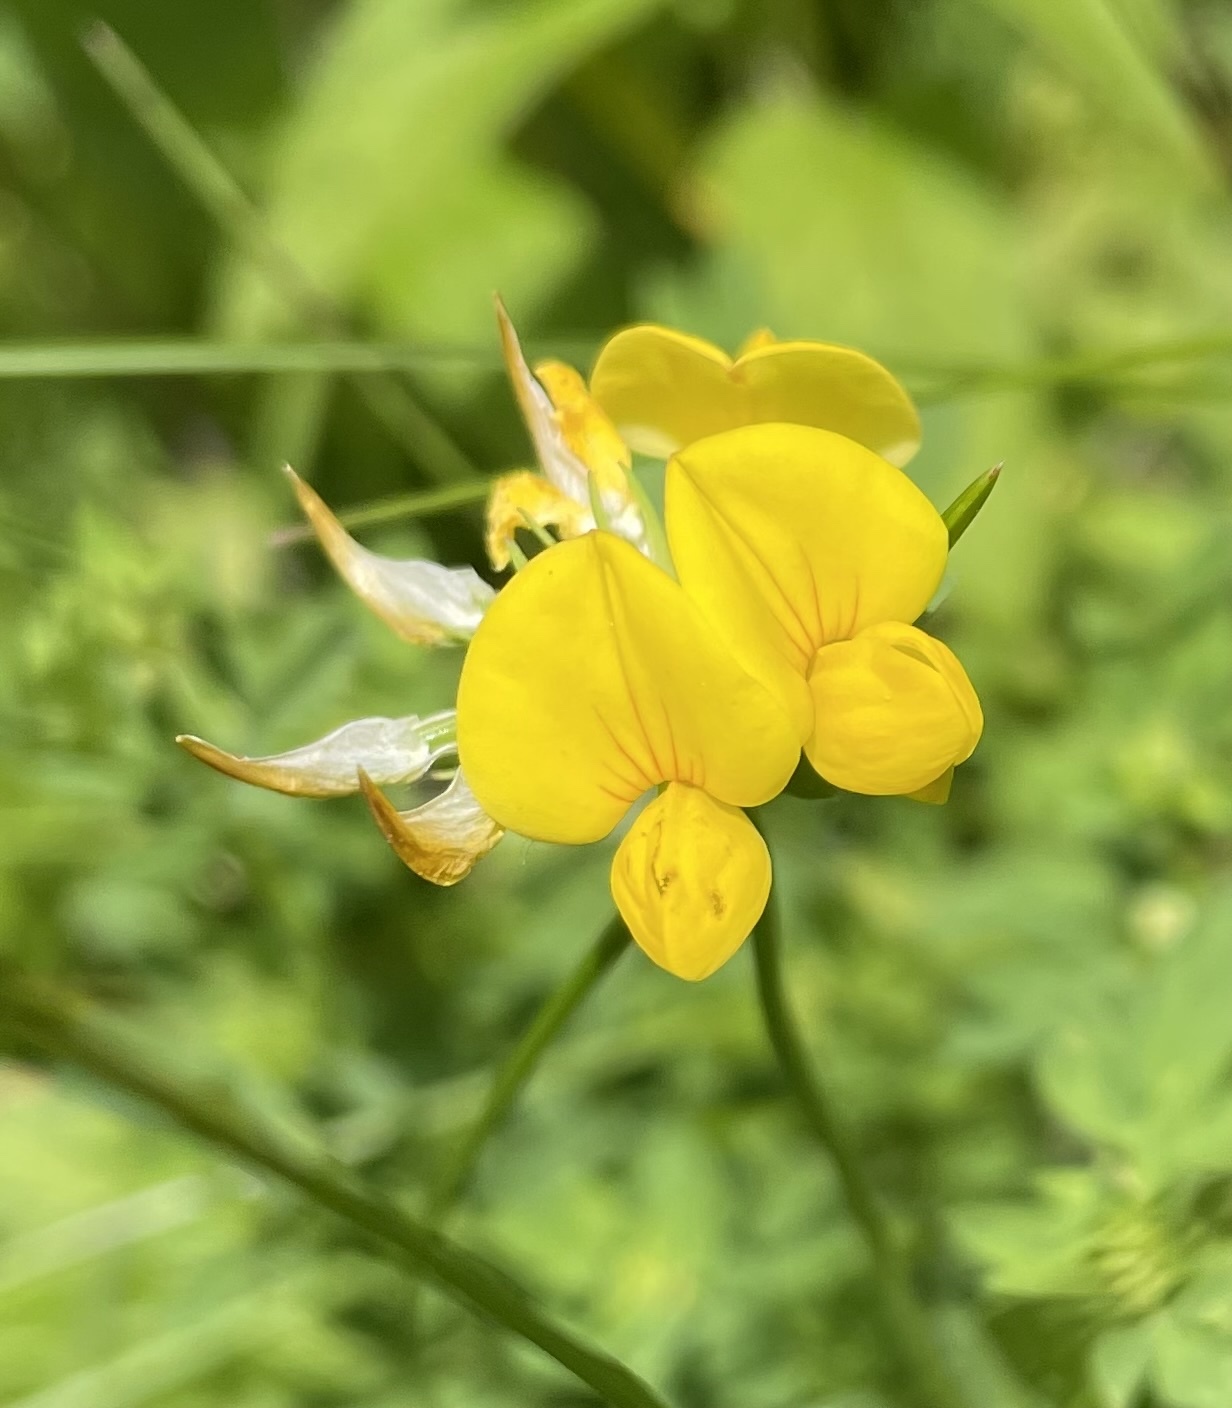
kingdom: Plantae
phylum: Tracheophyta
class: Magnoliopsida
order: Fabales
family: Fabaceae
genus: Lotus
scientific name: Lotus corniculatus
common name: Common bird's-foot-trefoil
